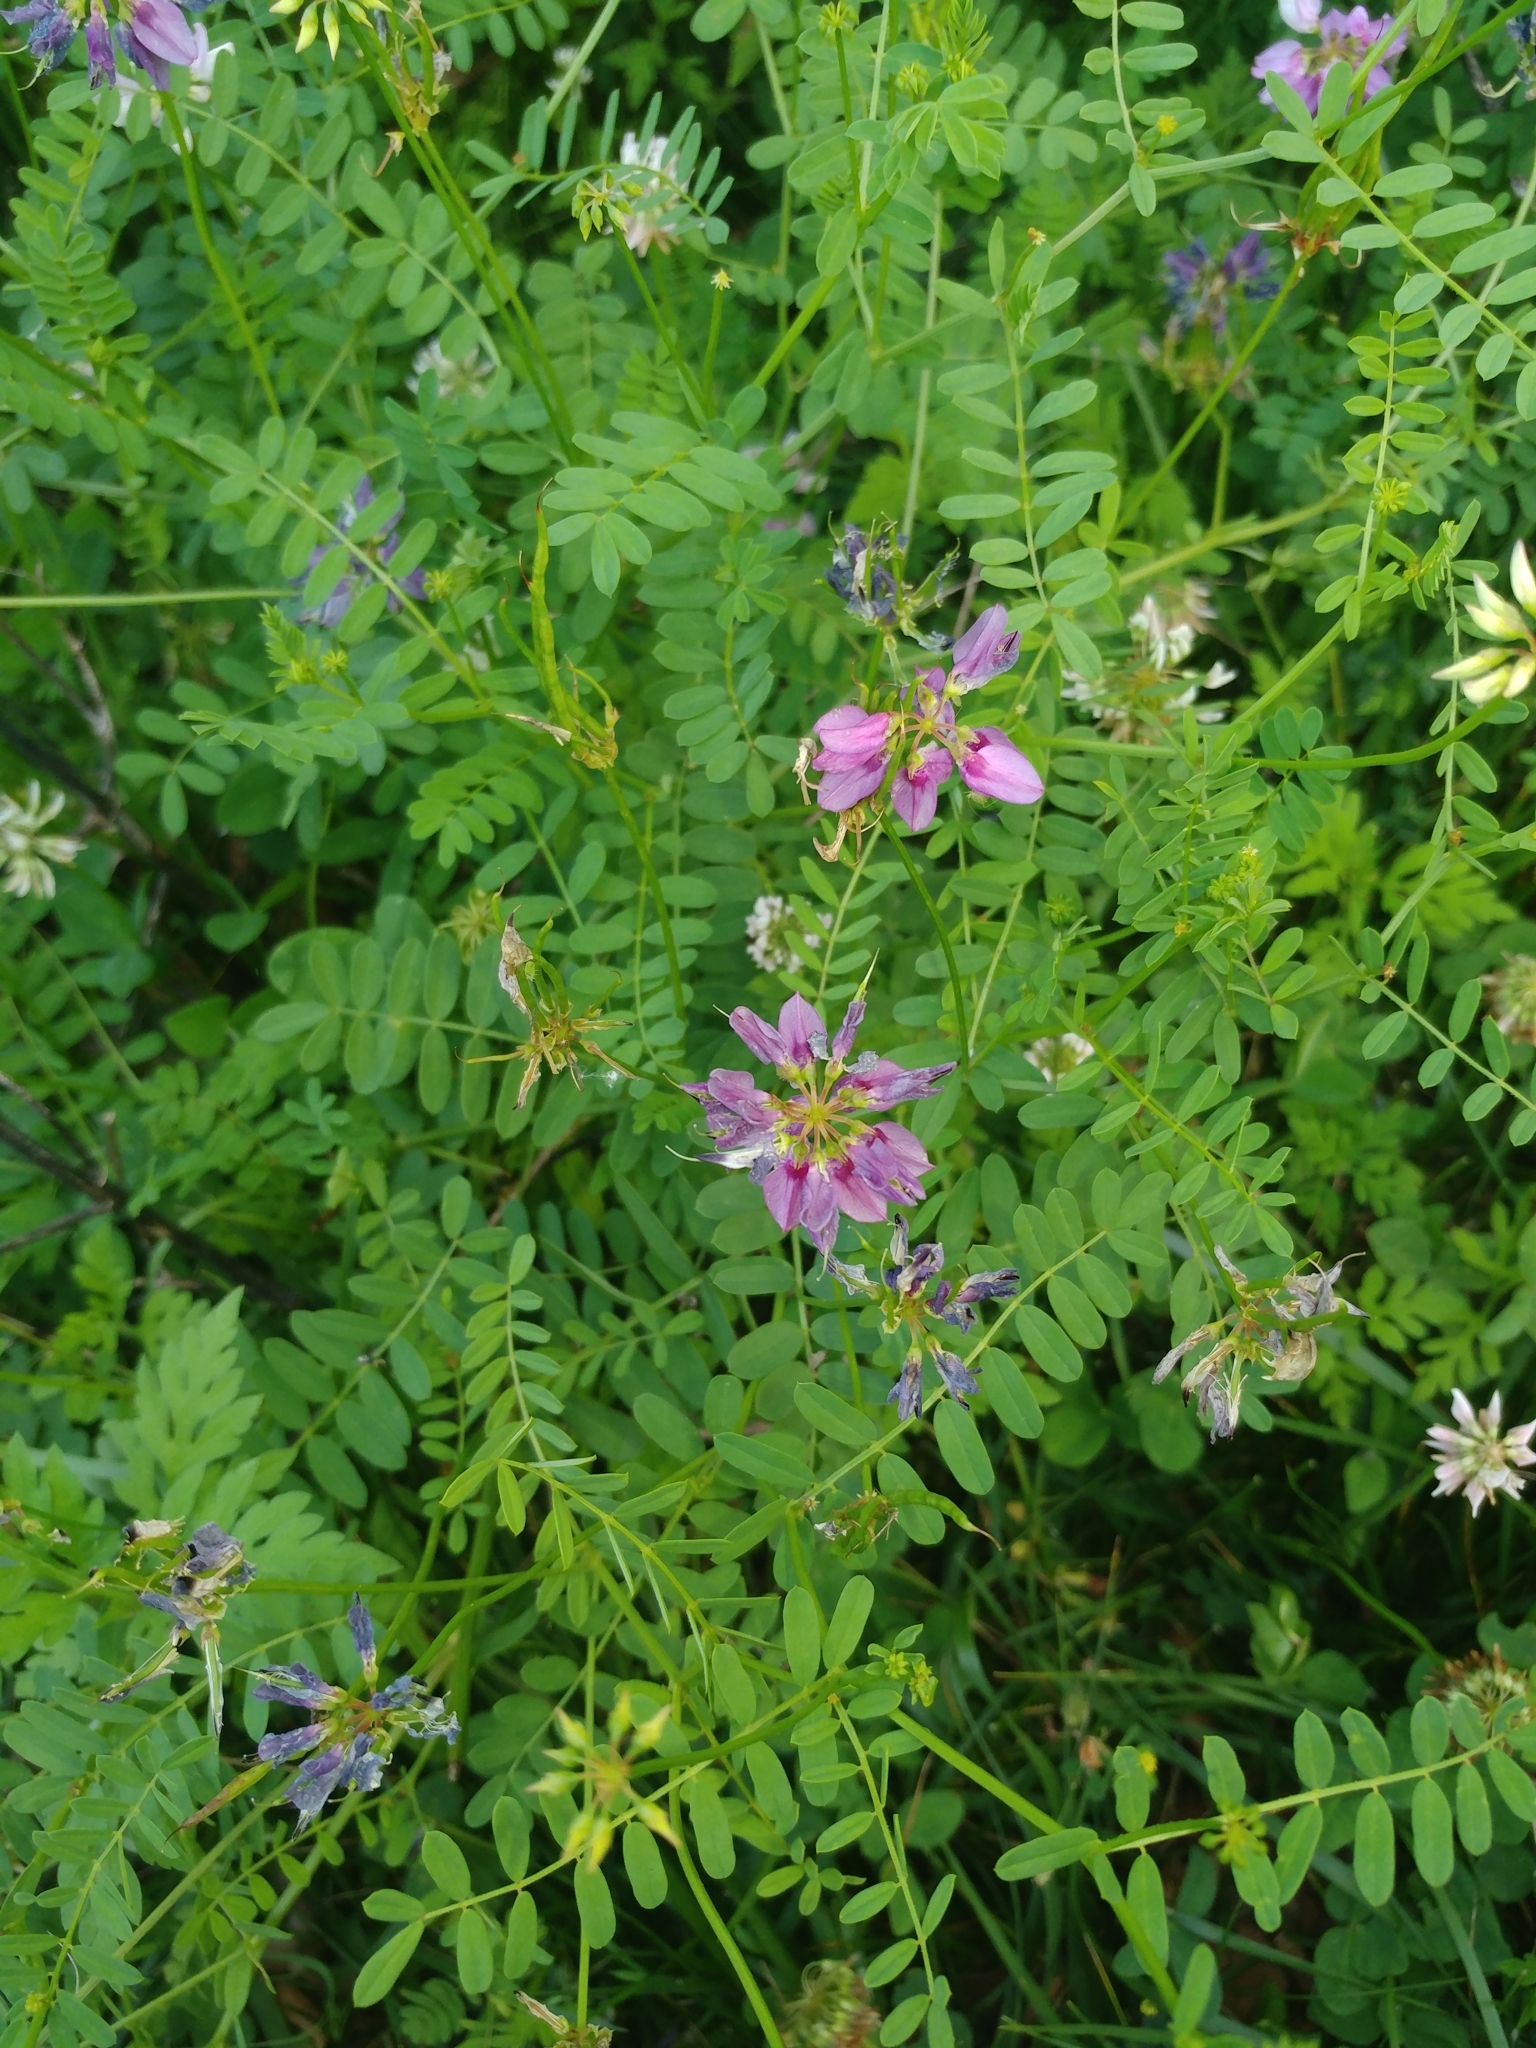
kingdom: Plantae
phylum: Tracheophyta
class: Magnoliopsida
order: Fabales
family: Fabaceae
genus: Coronilla
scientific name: Coronilla varia
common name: Crownvetch
